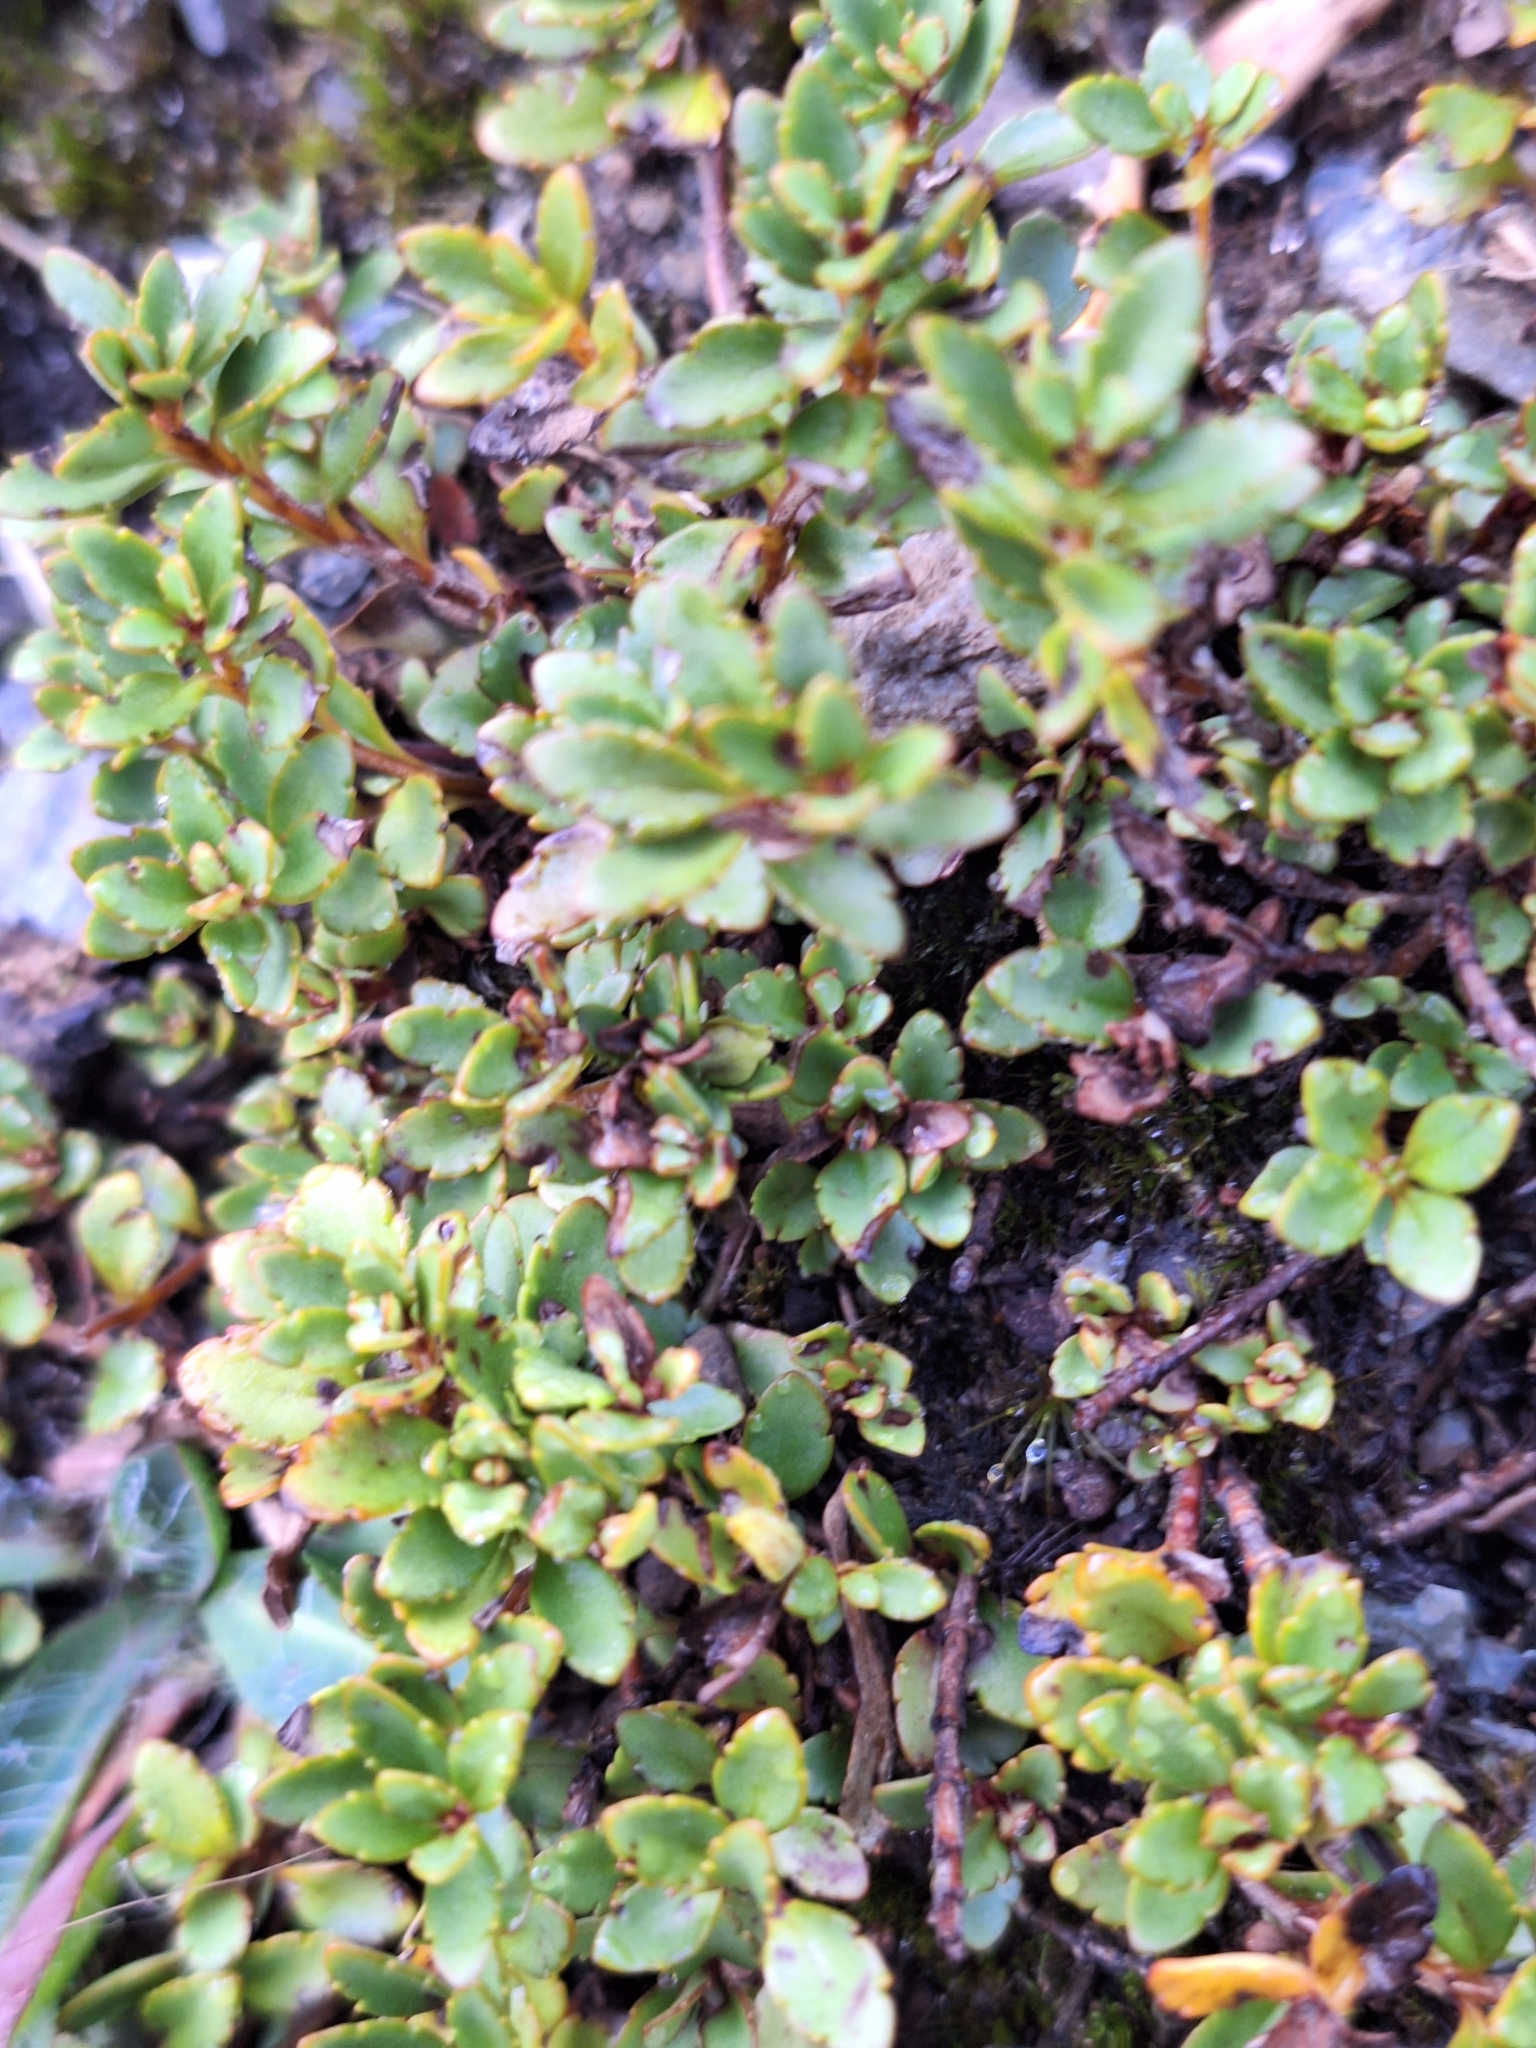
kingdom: Plantae
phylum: Tracheophyta
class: Magnoliopsida
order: Lamiales
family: Plantaginaceae
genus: Veronica
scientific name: Veronica lyallii
